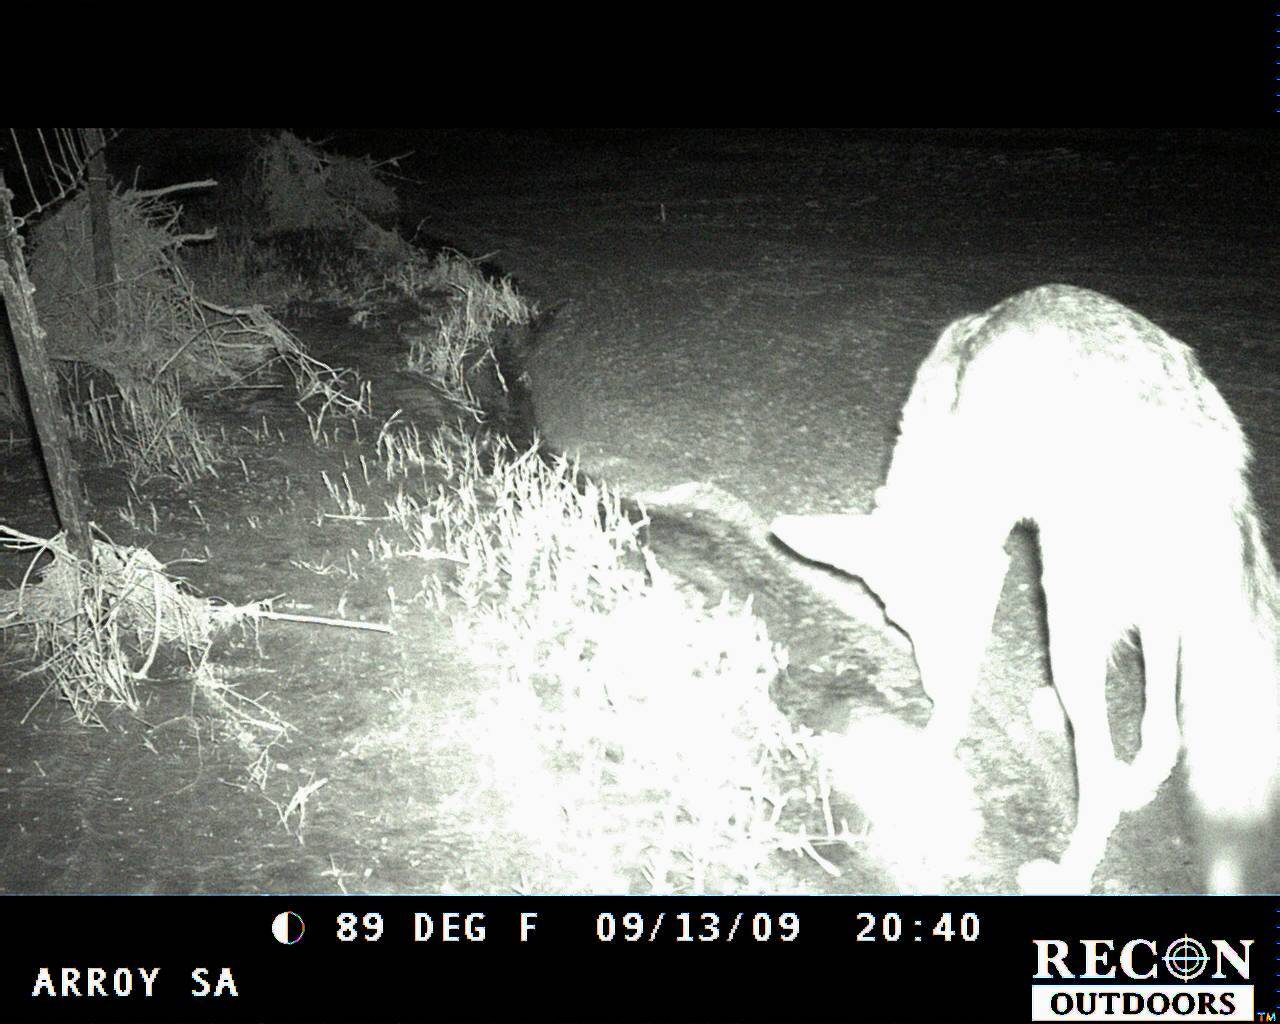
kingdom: Animalia
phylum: Chordata
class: Mammalia
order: Carnivora
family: Canidae
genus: Canis
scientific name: Canis latrans
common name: Coyote
